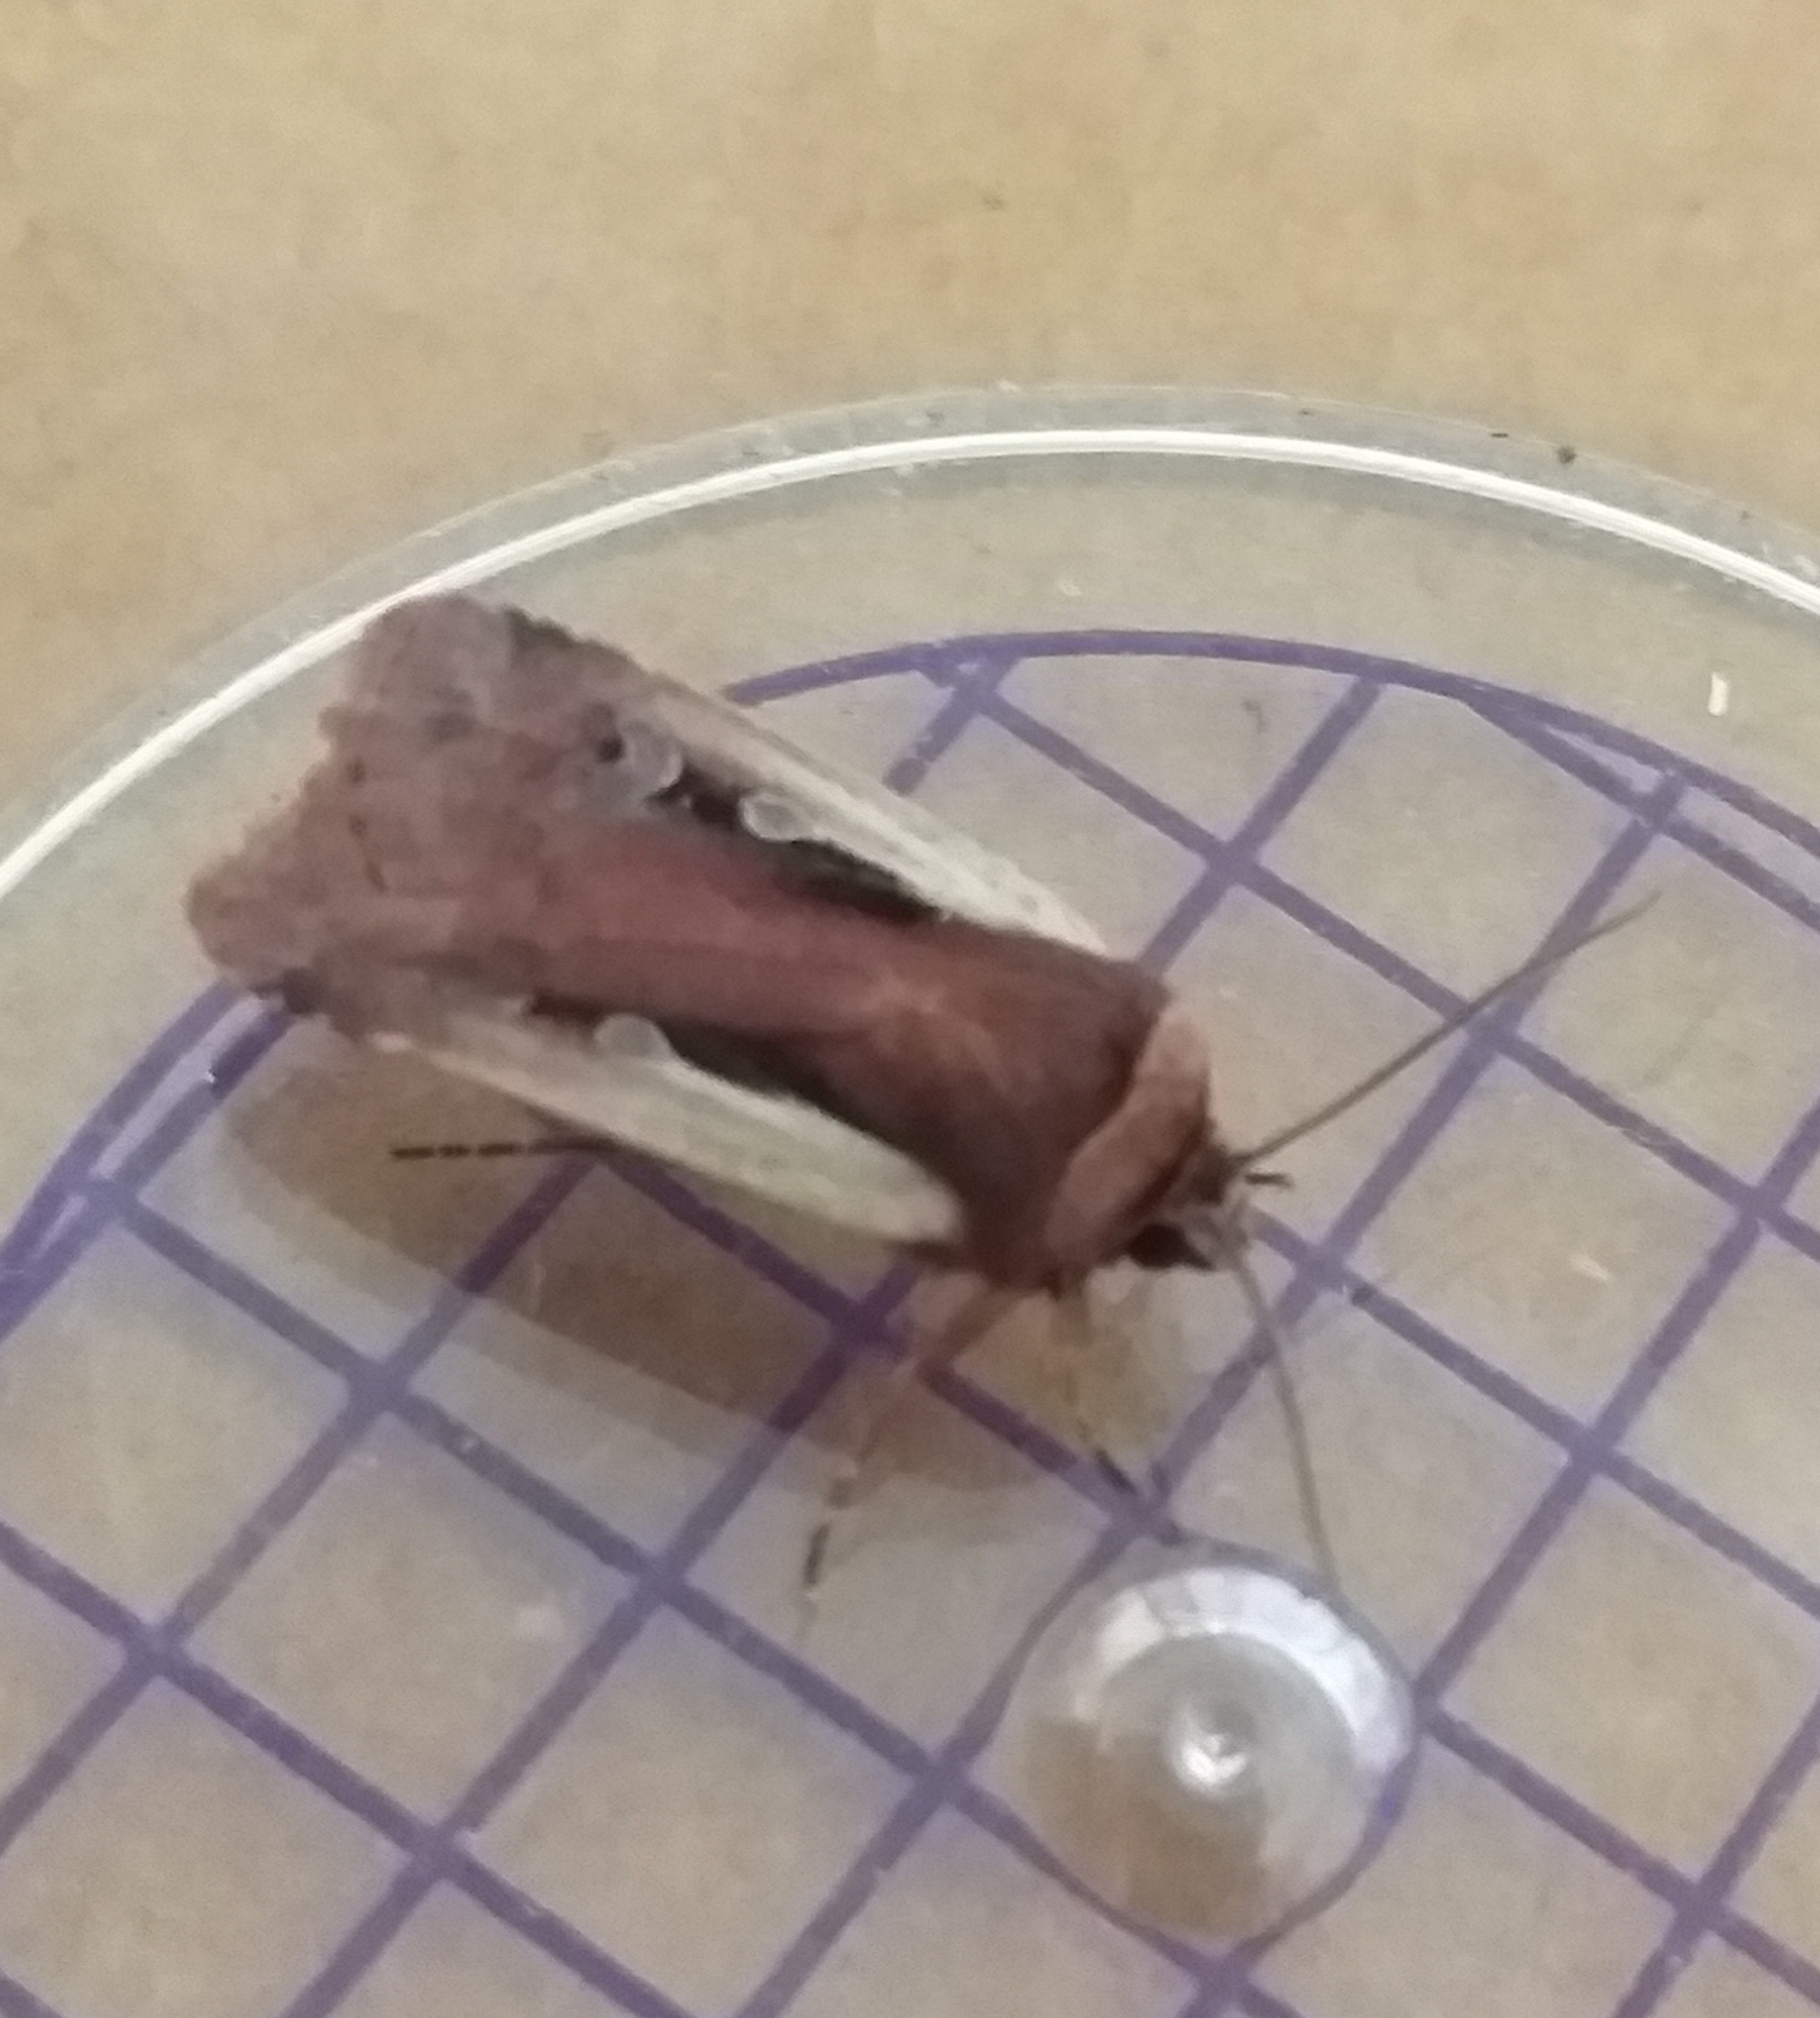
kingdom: Animalia
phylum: Arthropoda
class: Insecta
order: Lepidoptera
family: Noctuidae
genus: Ochropleura
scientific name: Ochropleura plecta
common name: Flame shoulder
